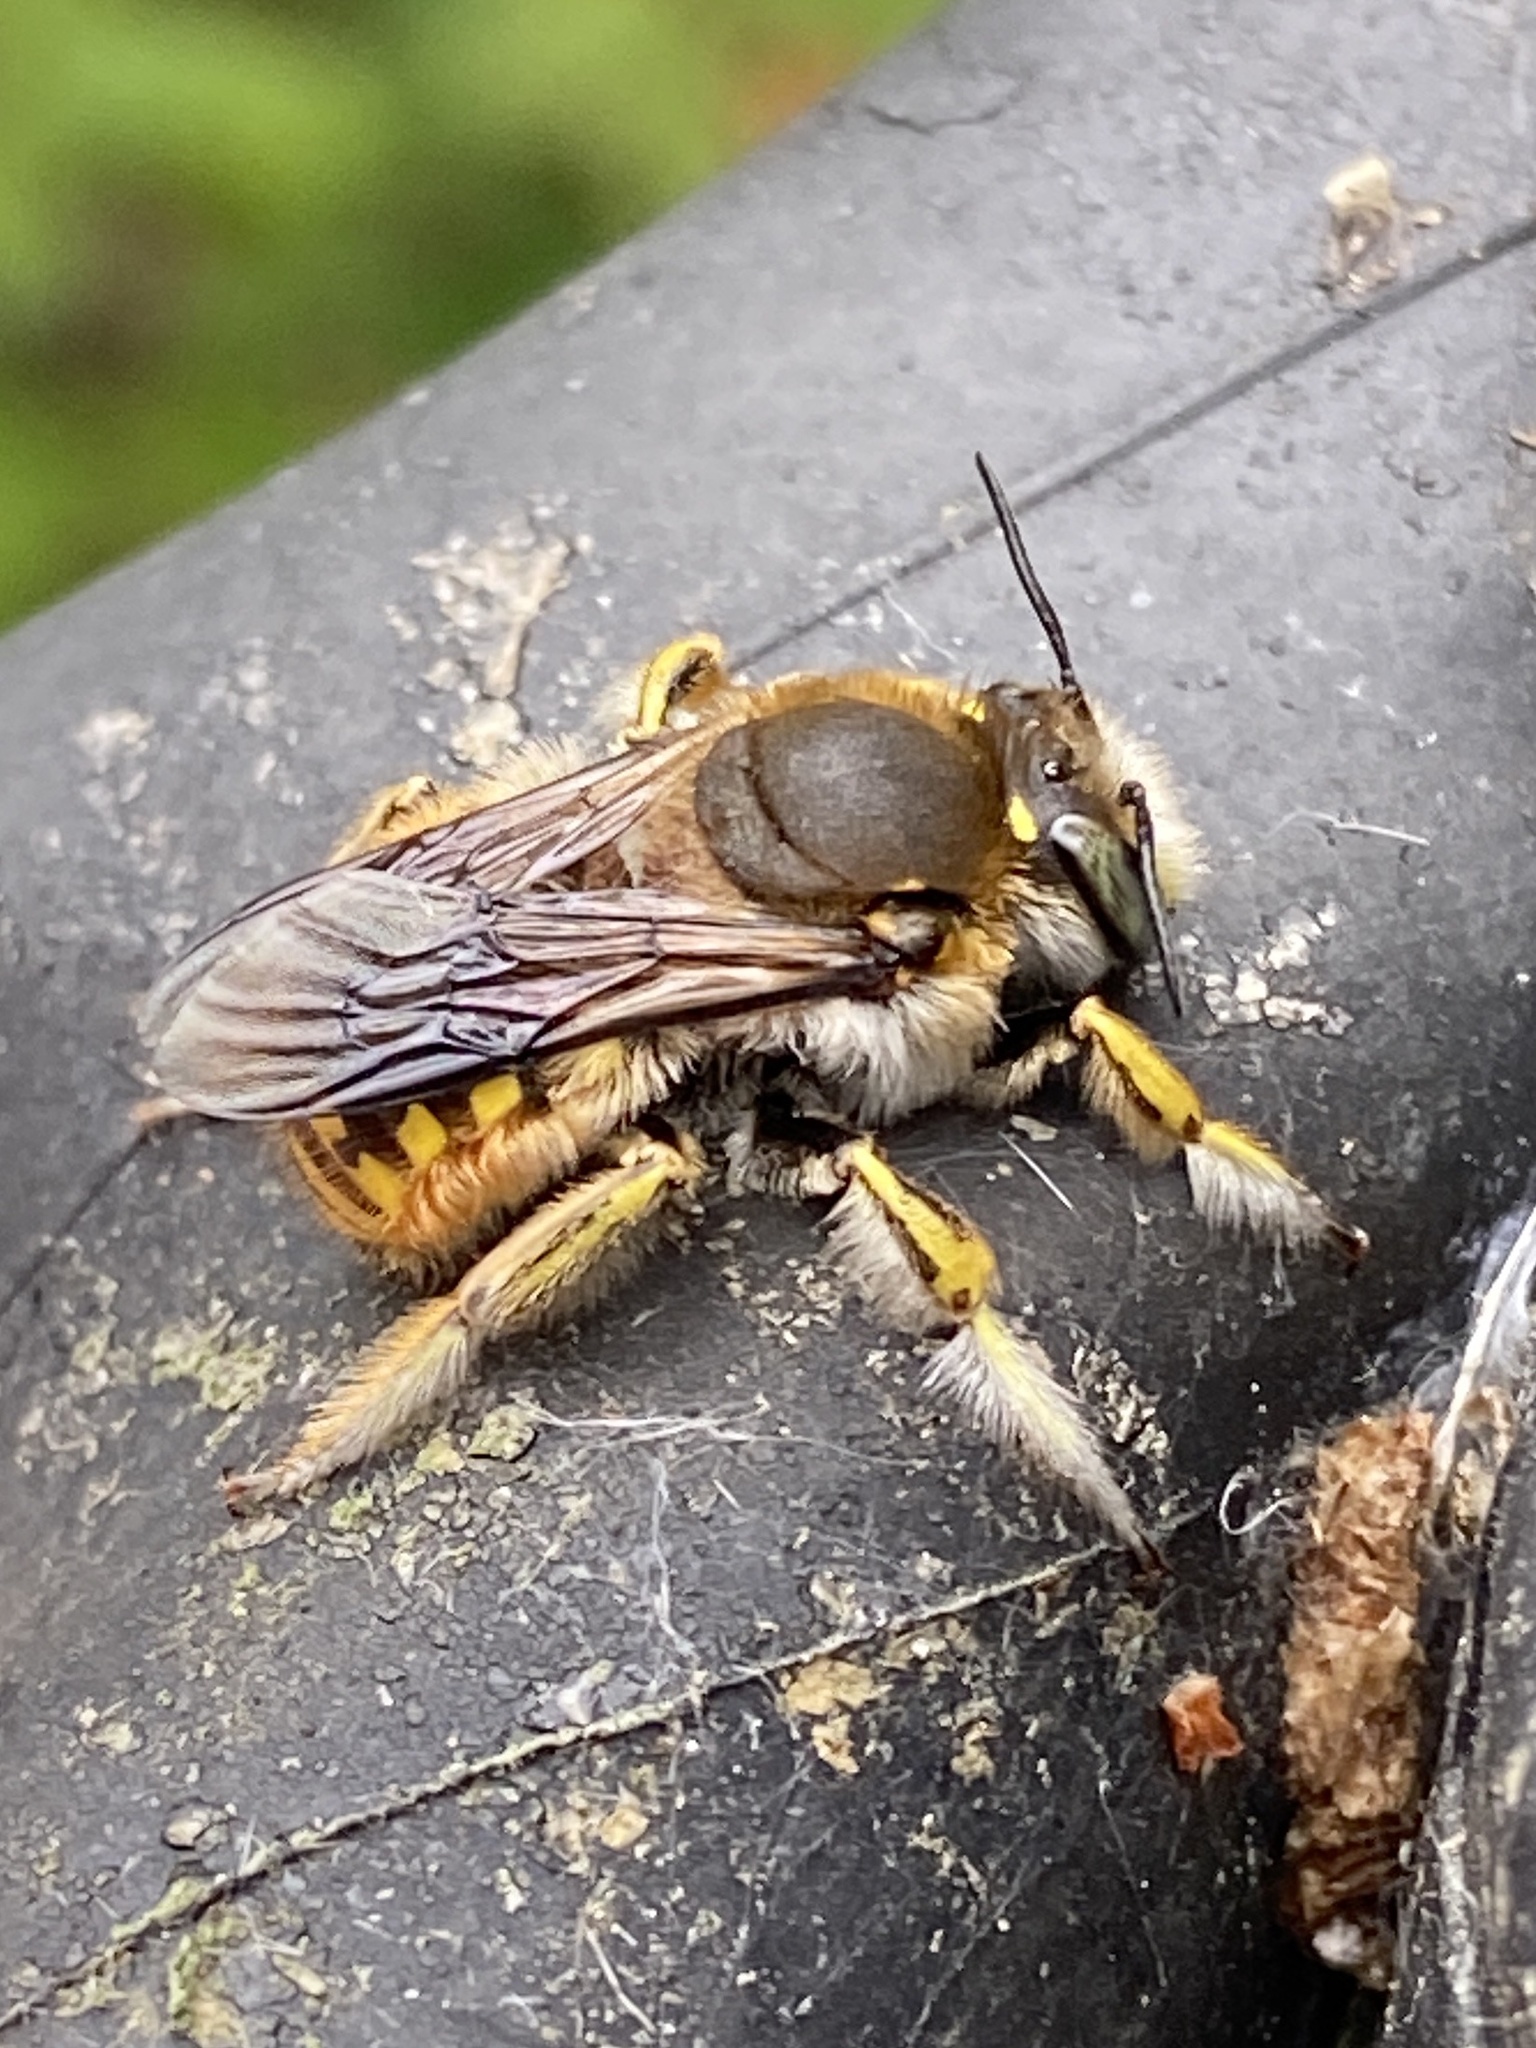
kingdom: Animalia
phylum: Arthropoda
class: Insecta
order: Hymenoptera
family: Megachilidae
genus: Anthidium
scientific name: Anthidium manicatum
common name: Wool carder bee
